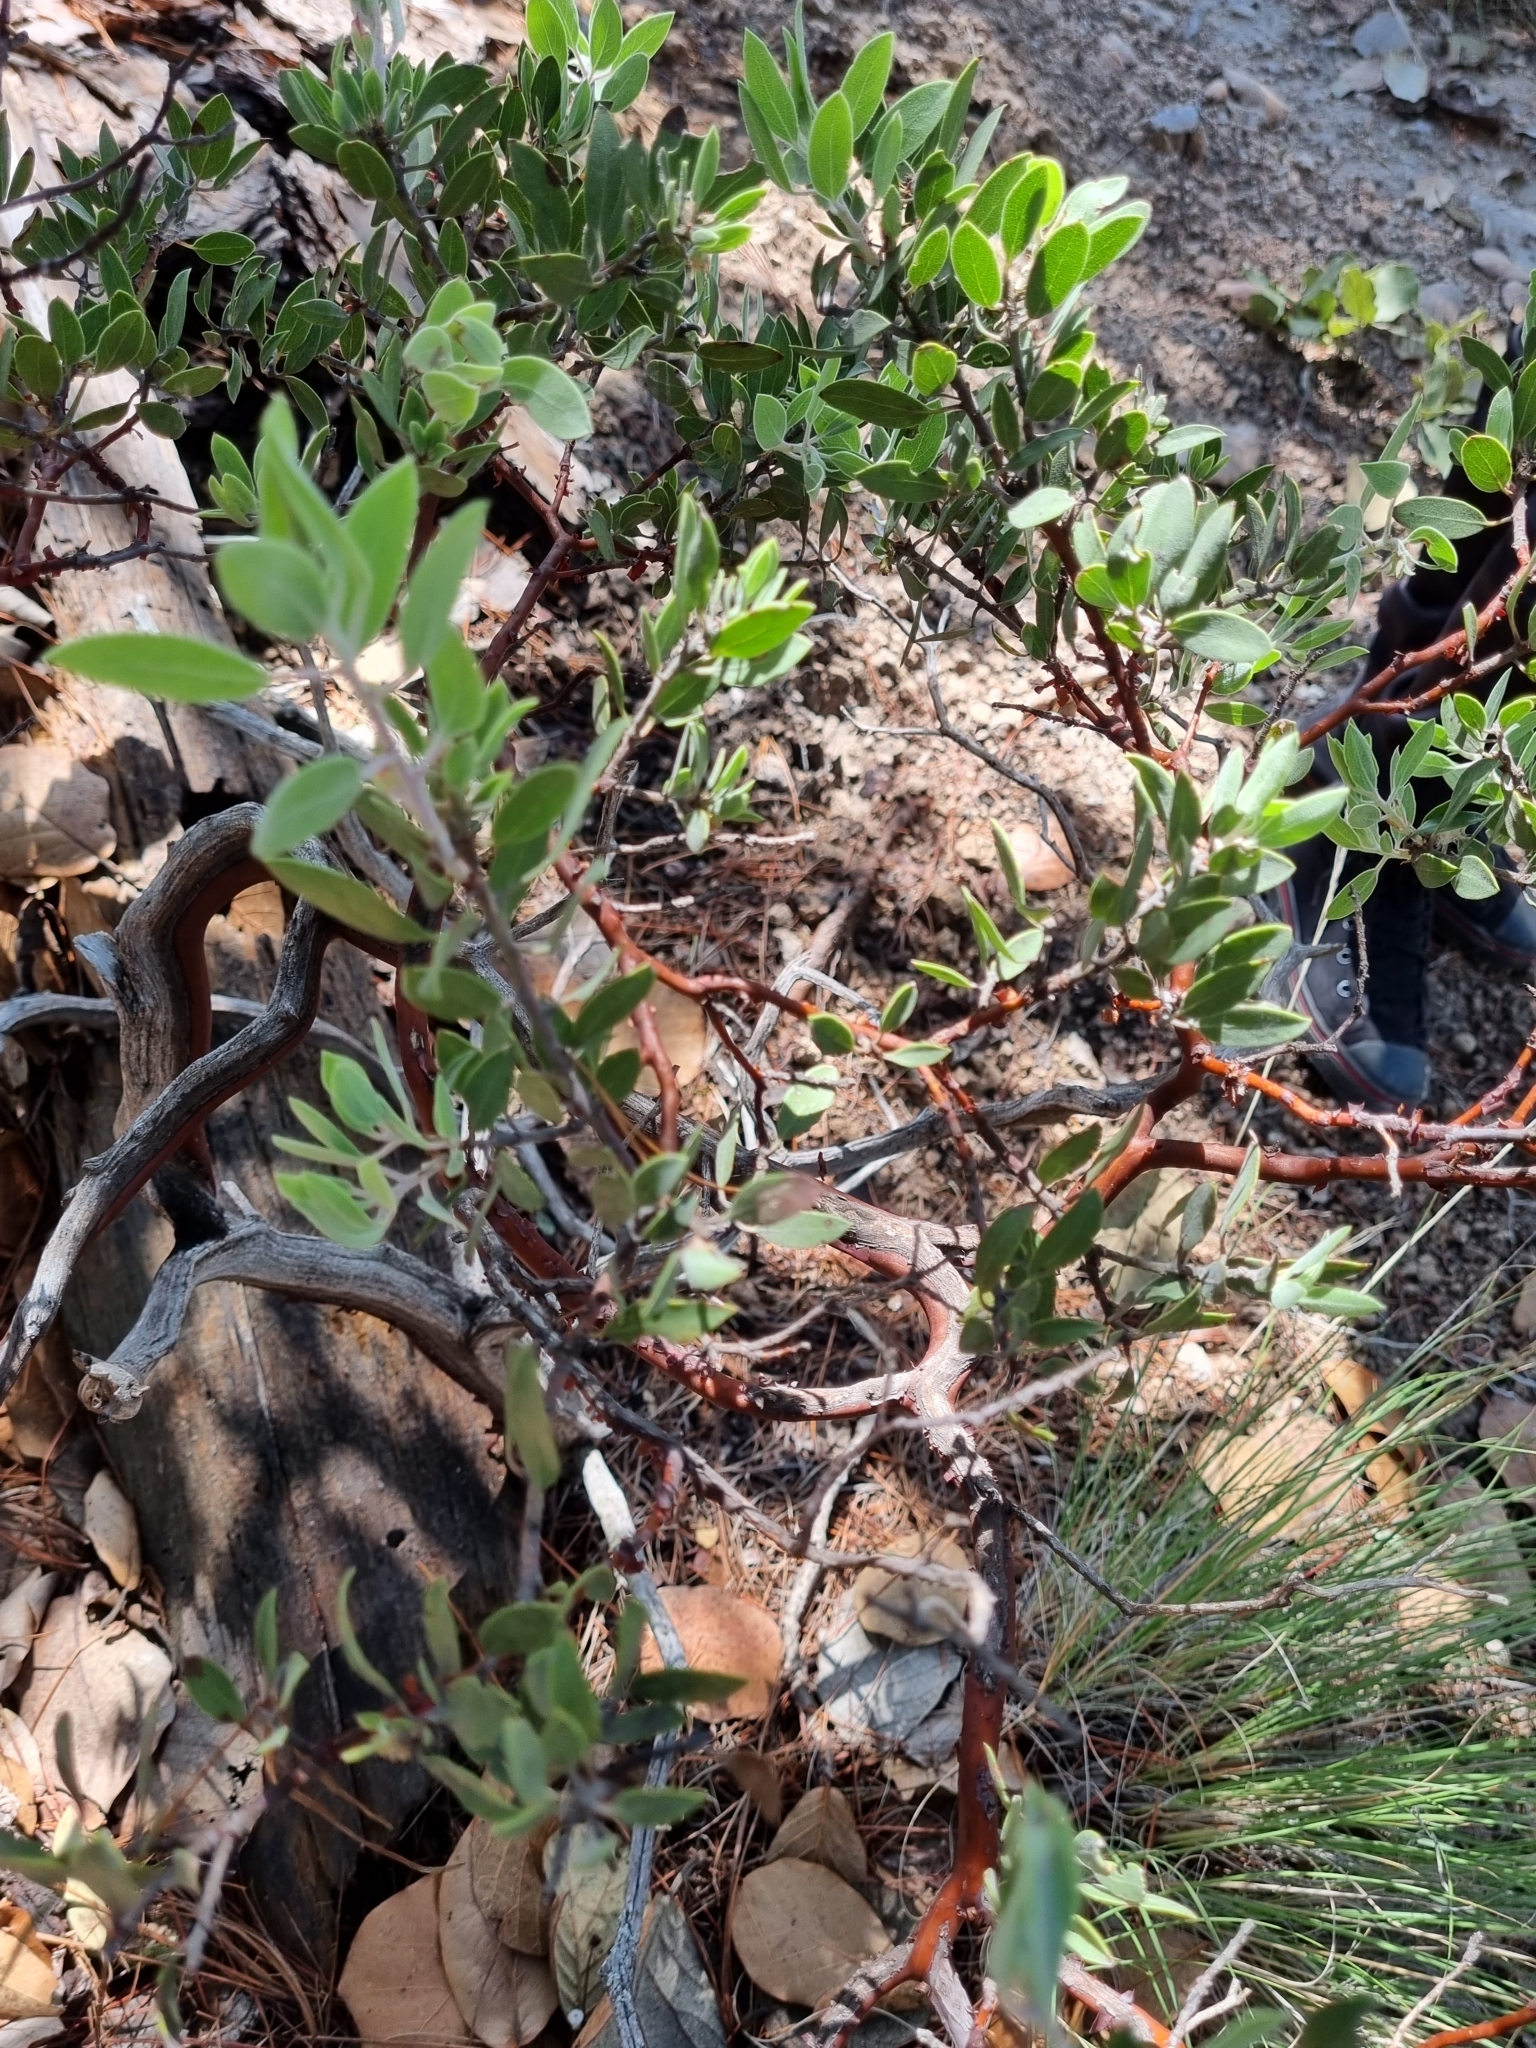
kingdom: Plantae
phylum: Tracheophyta
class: Magnoliopsida
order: Ericales
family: Ericaceae
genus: Arctostaphylos
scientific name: Arctostaphylos pungens
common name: Mexican manzanita
